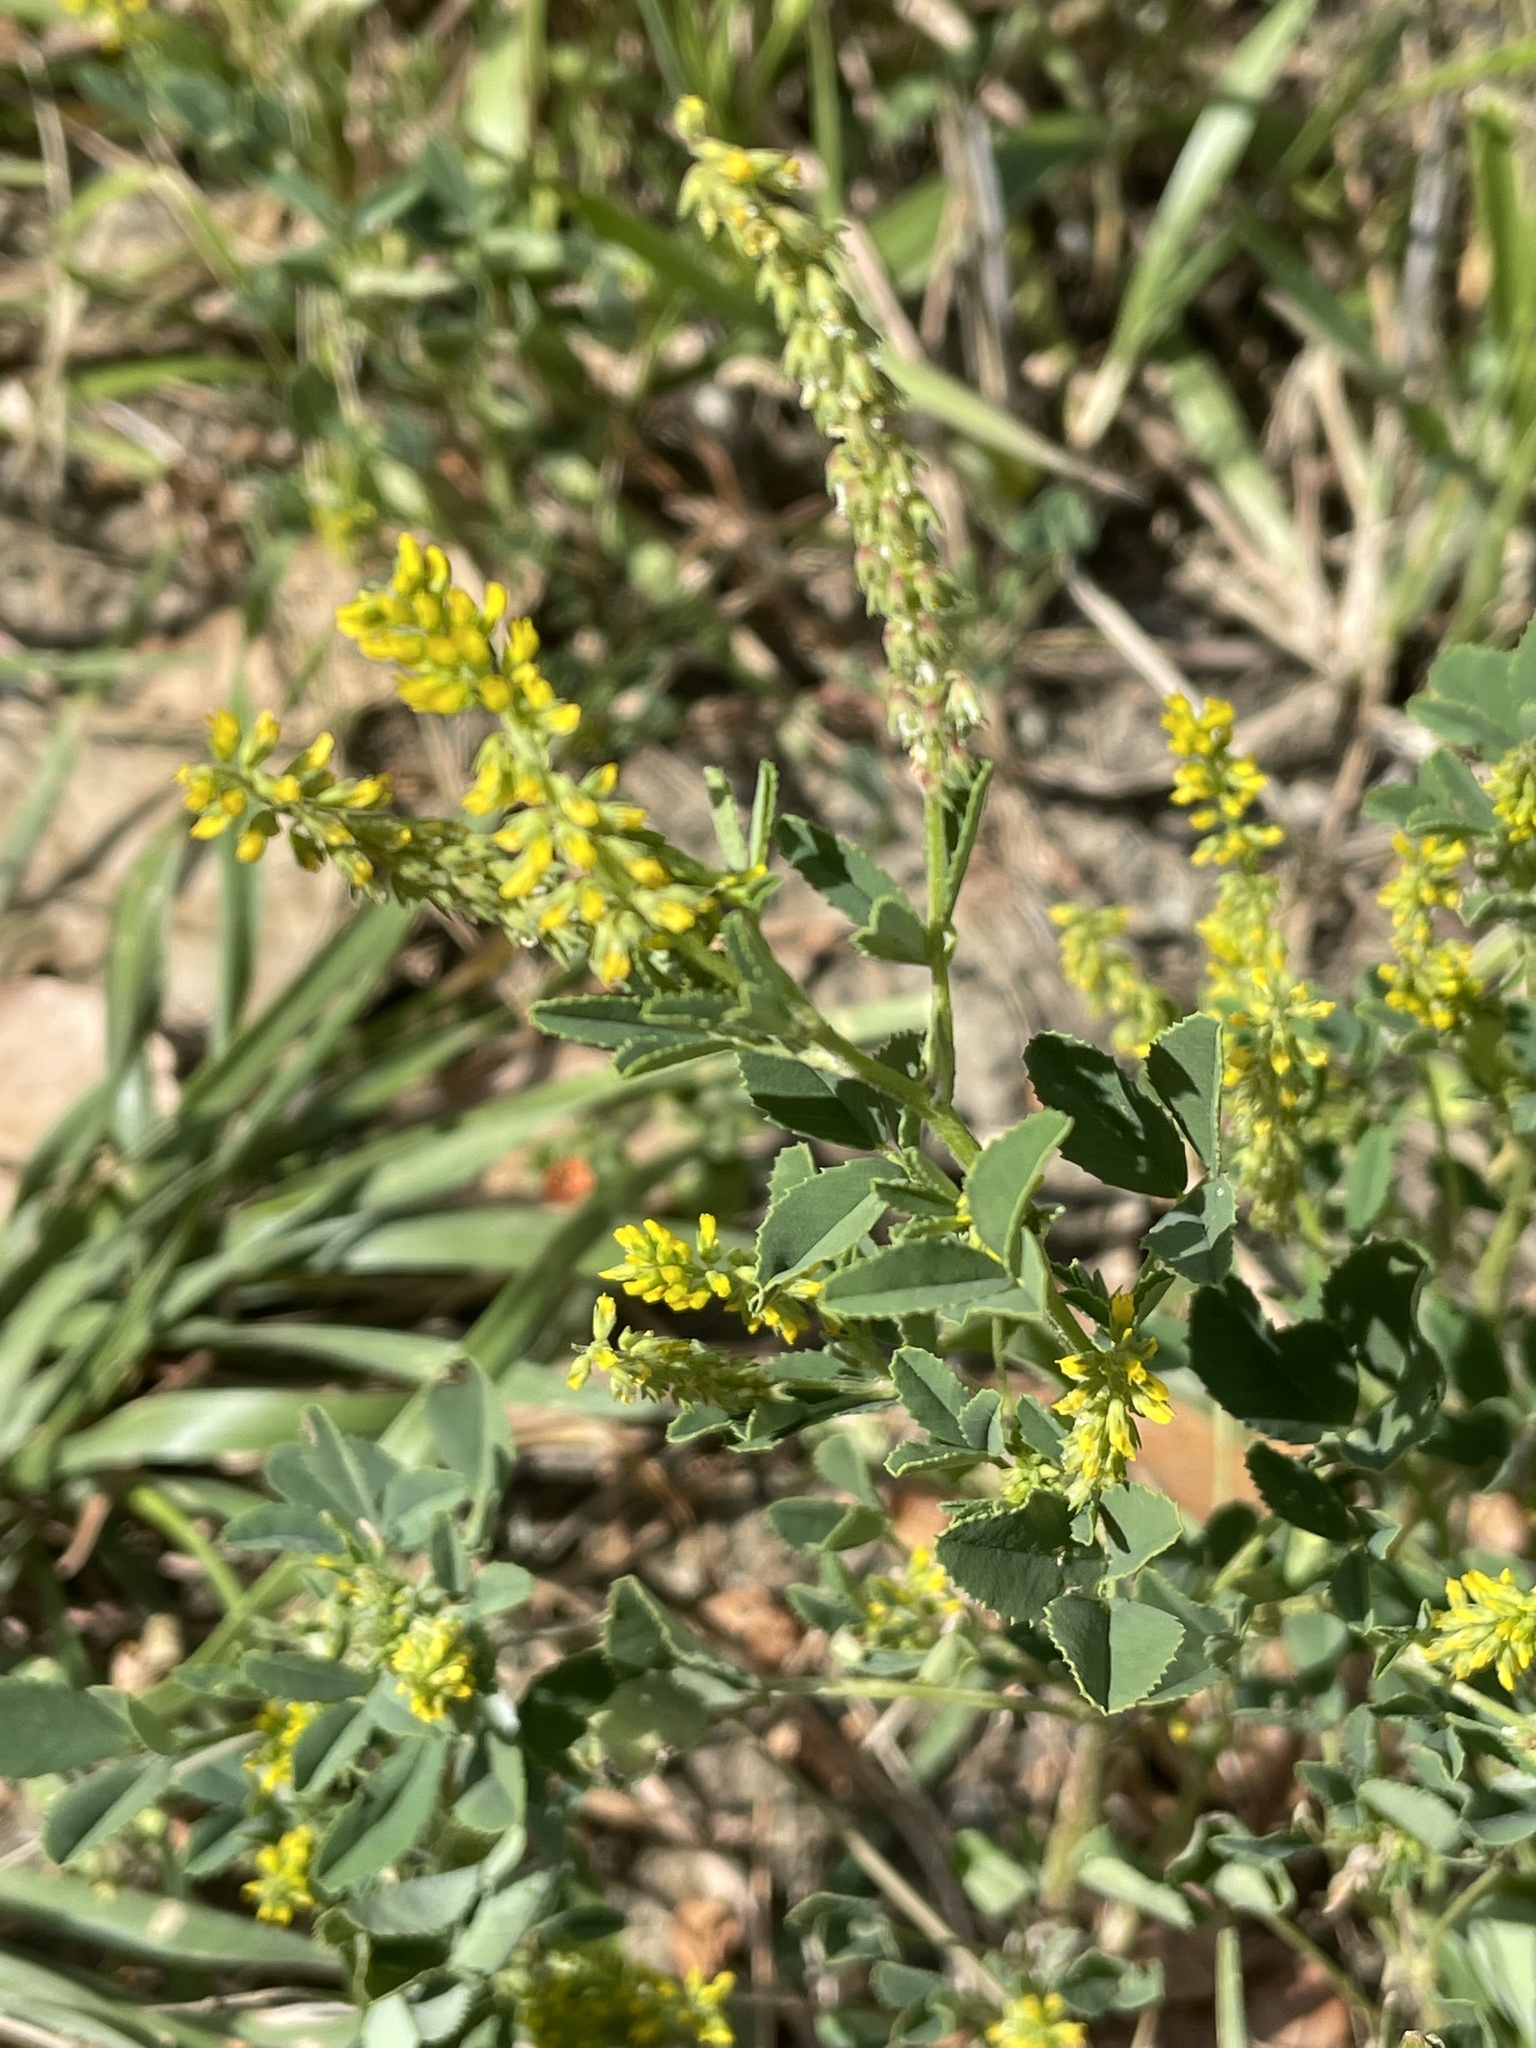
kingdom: Plantae
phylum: Tracheophyta
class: Magnoliopsida
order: Fabales
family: Fabaceae
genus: Melilotus
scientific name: Melilotus indicus
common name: Small melilot
